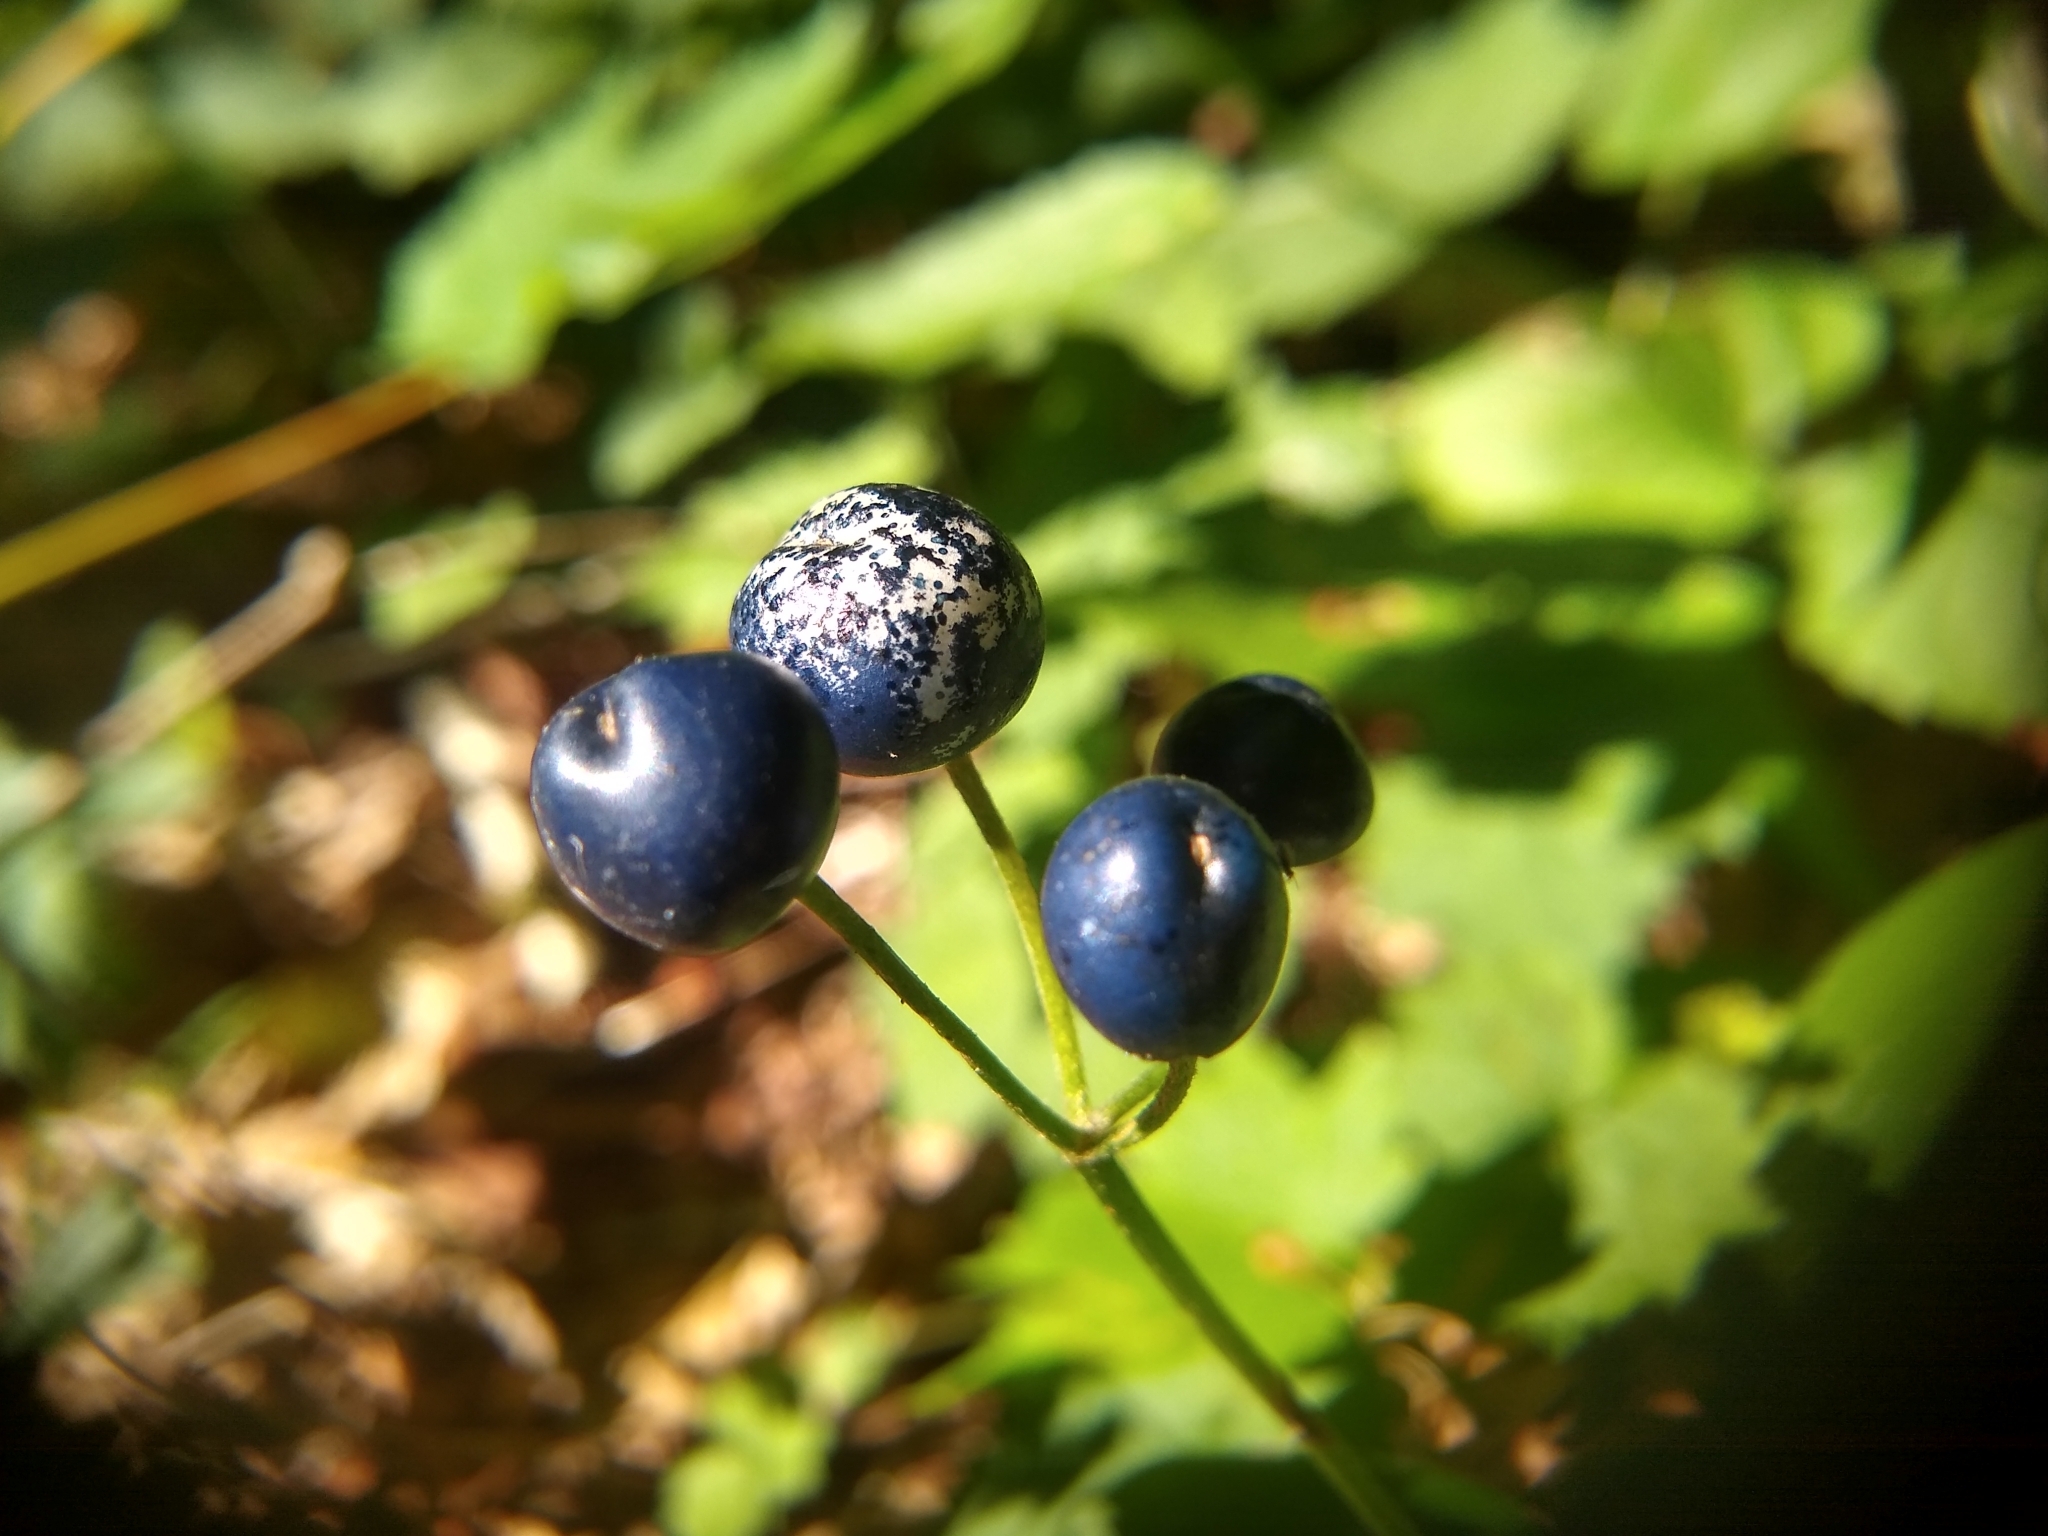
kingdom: Plantae
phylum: Tracheophyta
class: Liliopsida
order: Liliales
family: Liliaceae
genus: Clintonia
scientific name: Clintonia borealis
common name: Yellow clintonia
